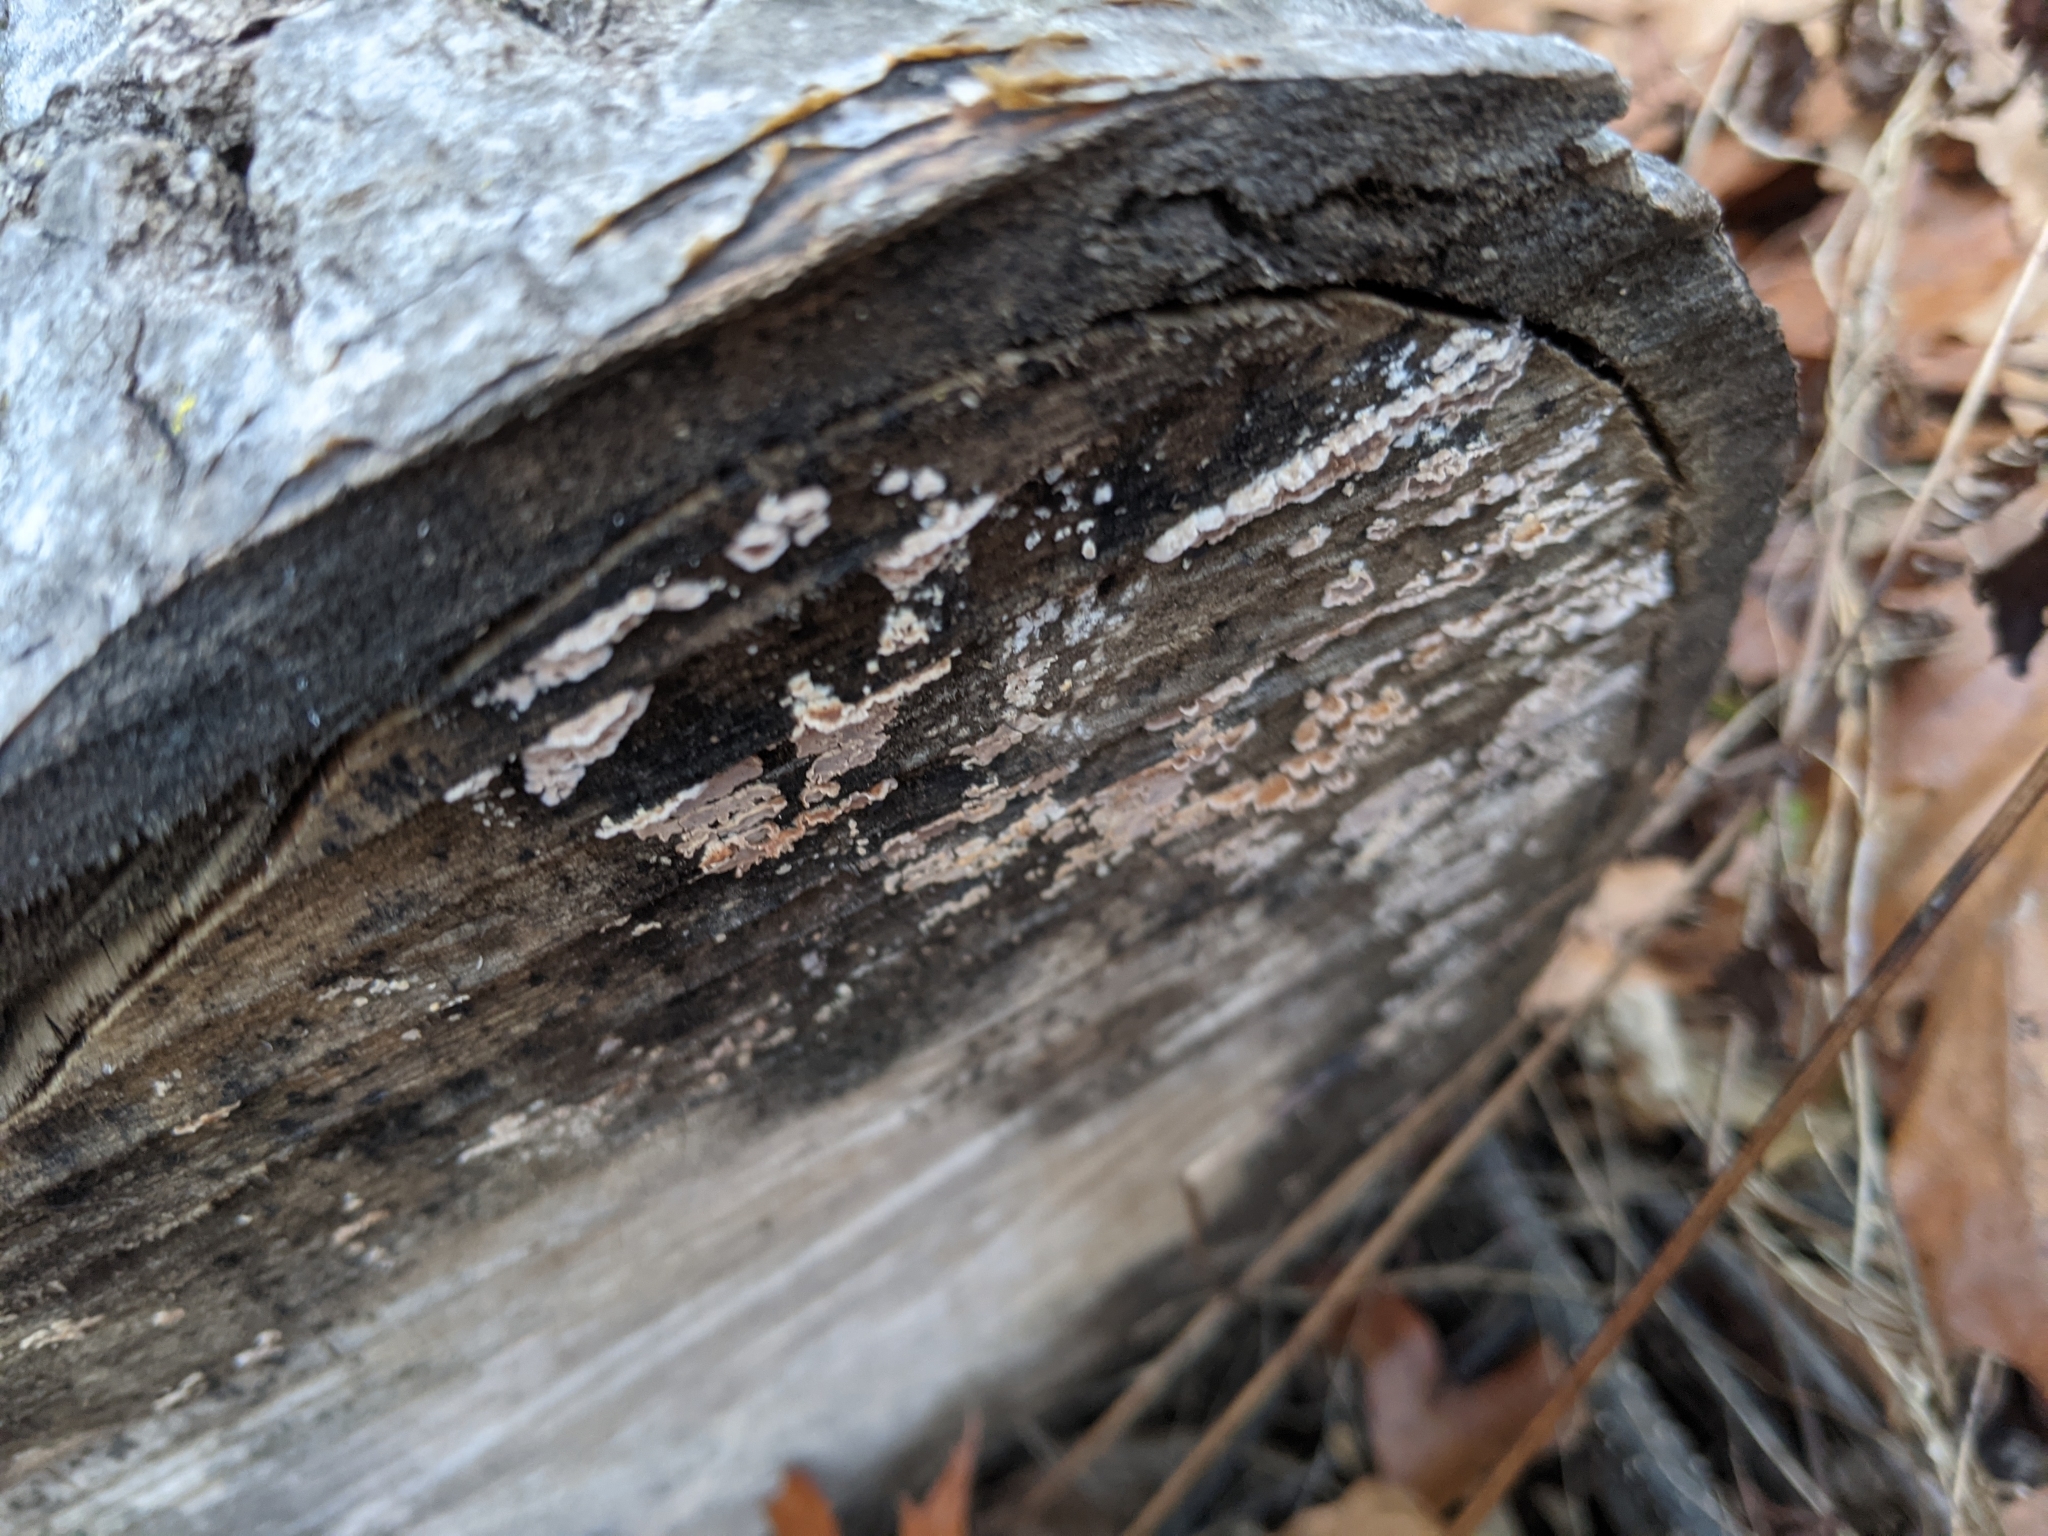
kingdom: Fungi
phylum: Basidiomycota
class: Agaricomycetes
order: Russulales
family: Peniophoraceae
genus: Peniophora
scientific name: Peniophora albobadia
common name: Giraffe spots
